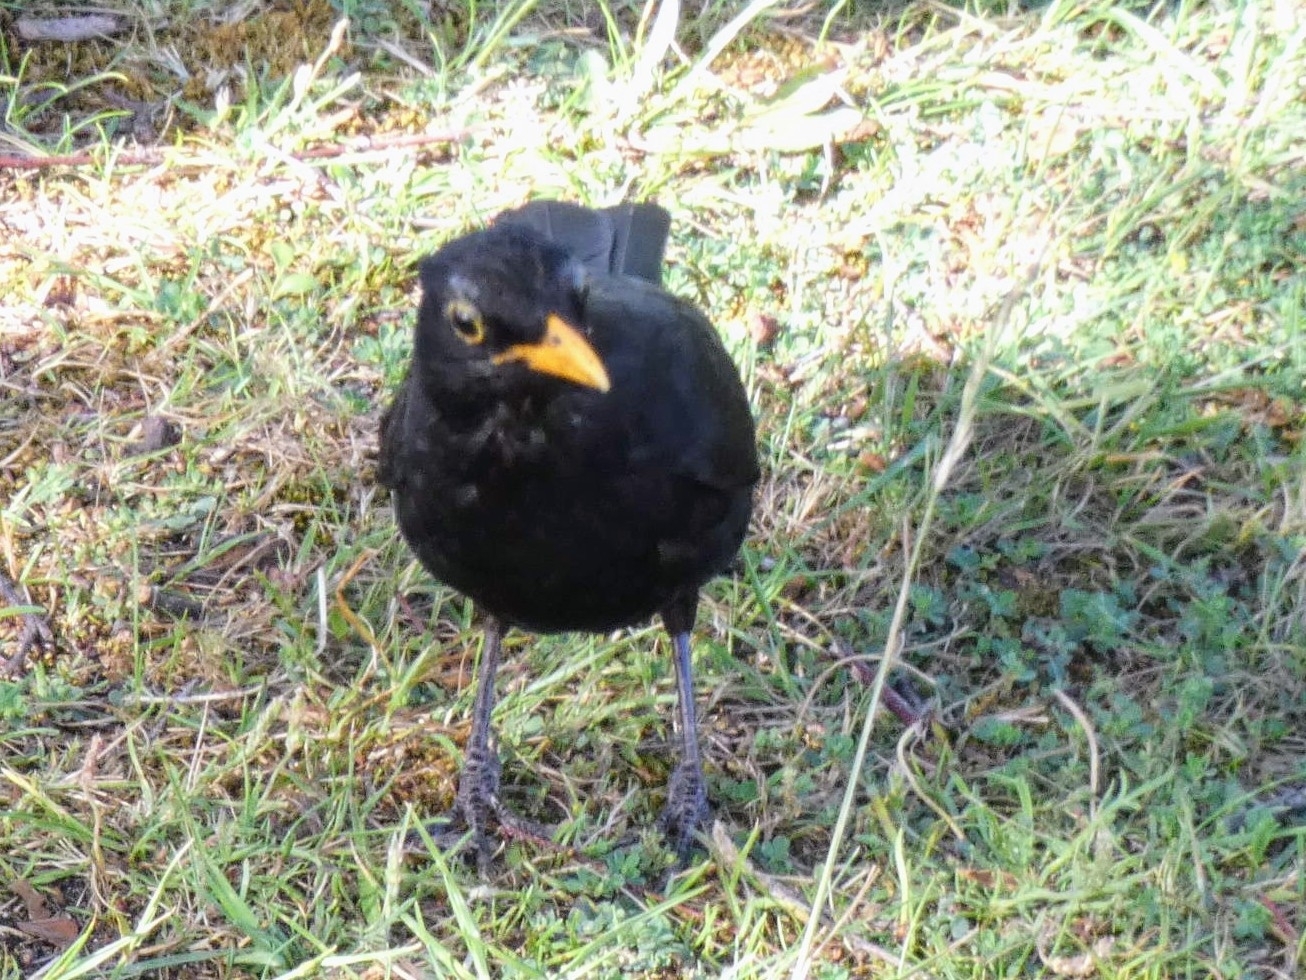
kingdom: Animalia
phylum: Chordata
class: Aves
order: Passeriformes
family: Turdidae
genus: Turdus
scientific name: Turdus merula
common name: Common blackbird
